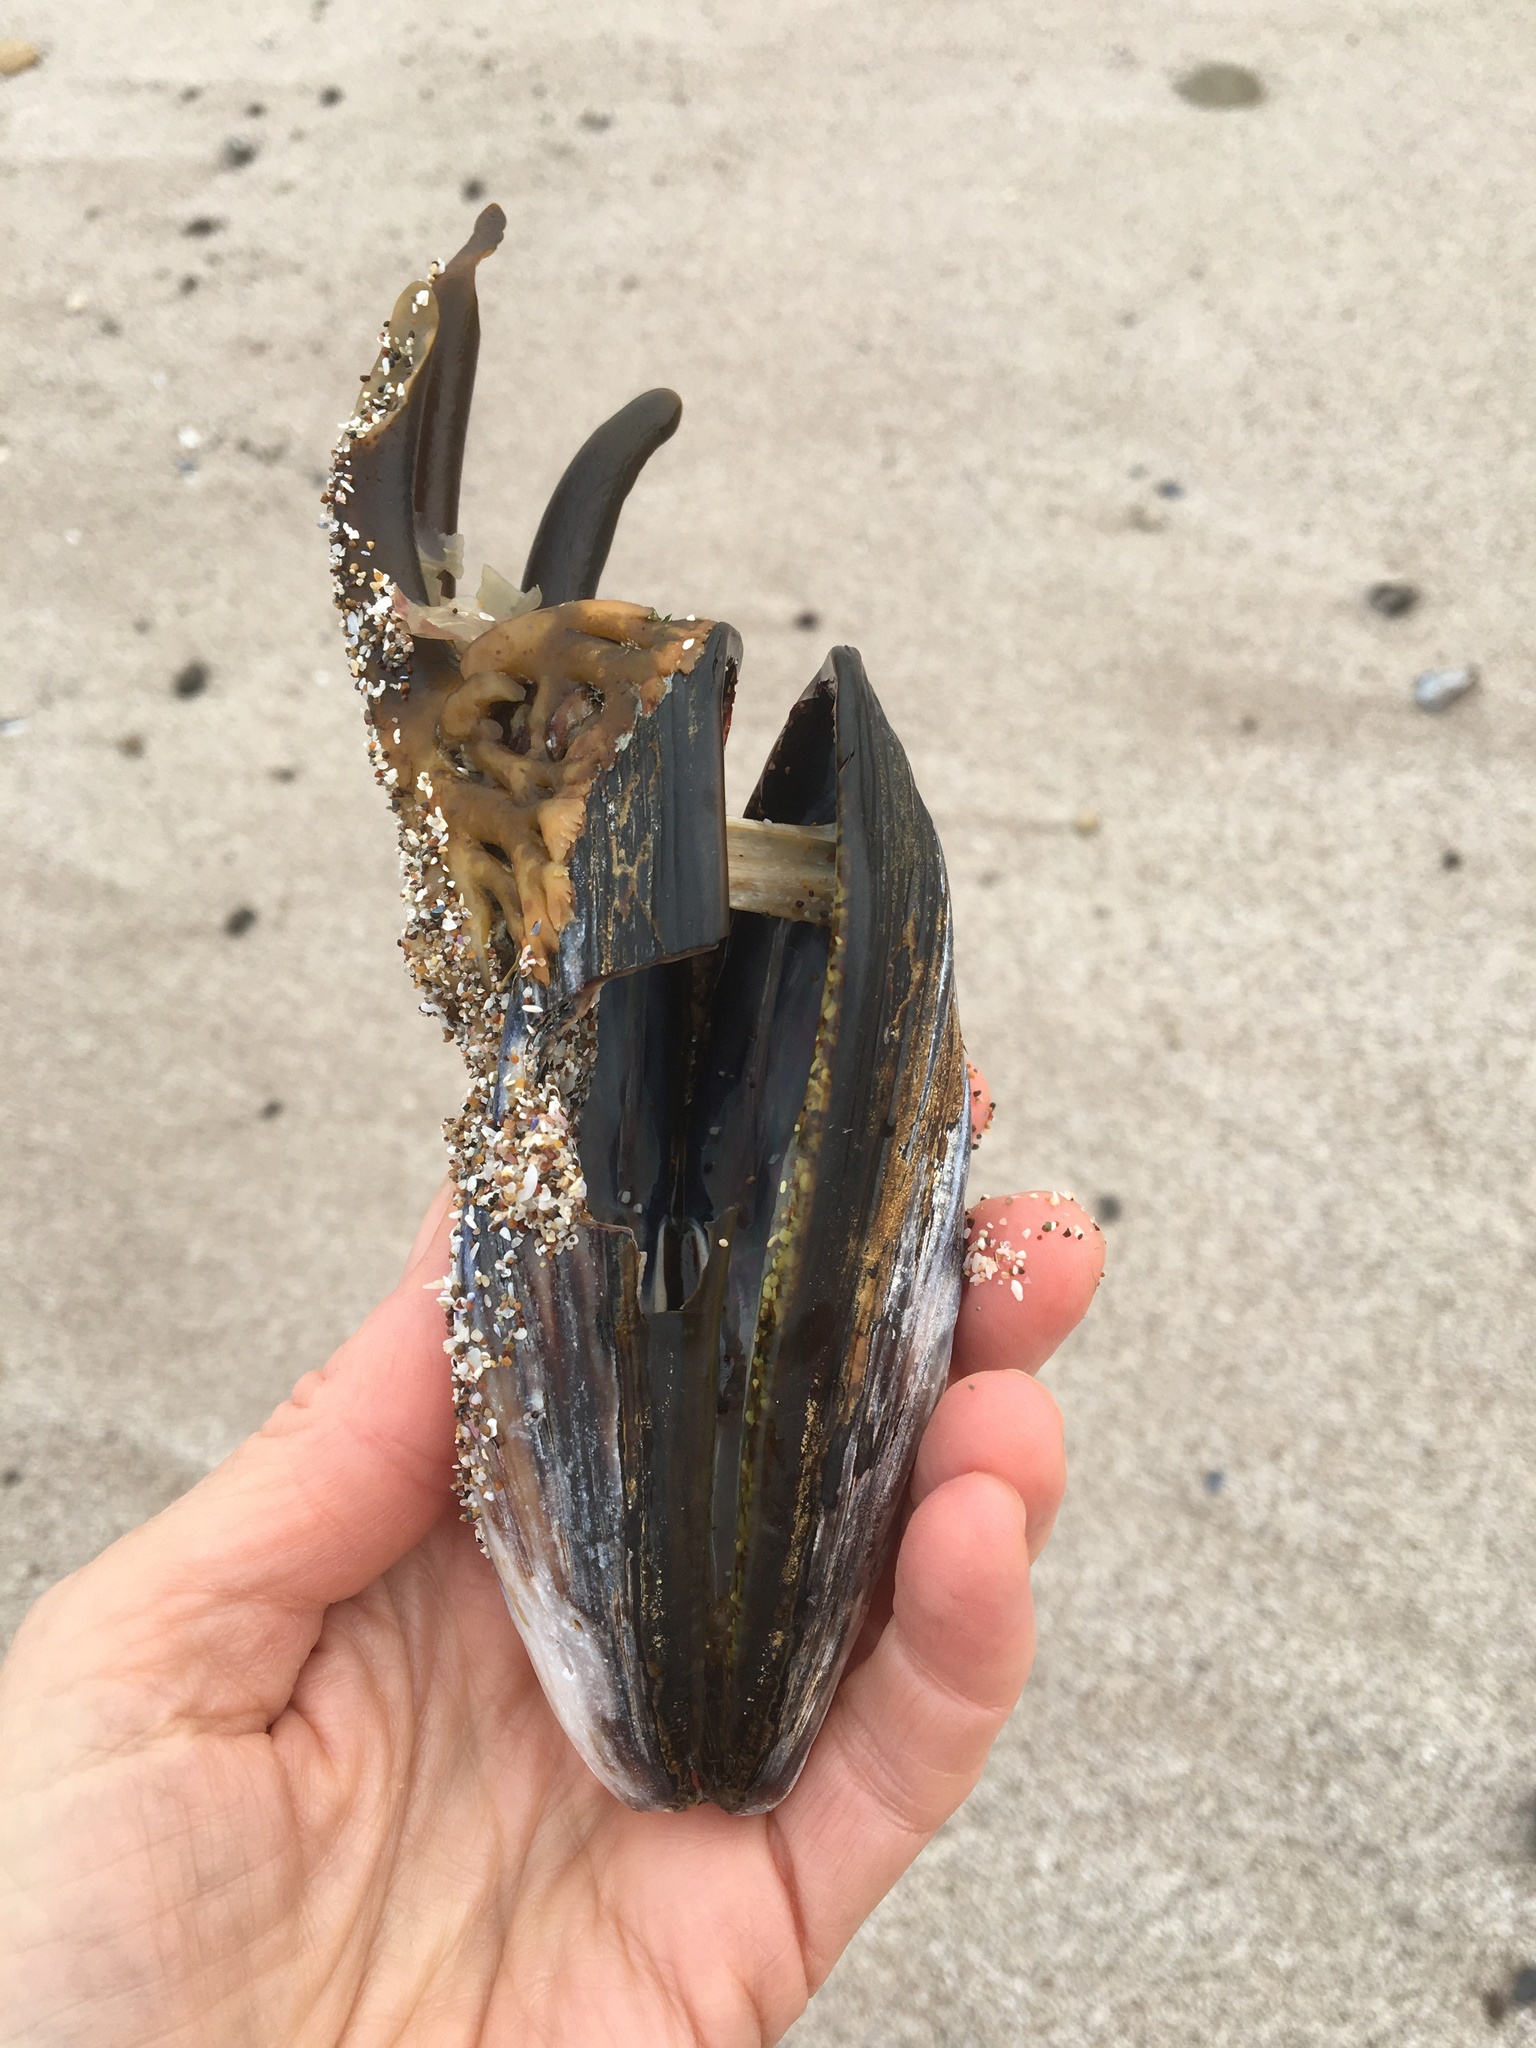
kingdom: Animalia
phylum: Mollusca
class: Bivalvia
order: Mytilida
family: Mytilidae
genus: Mytilus
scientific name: Mytilus californianus
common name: California mussel
